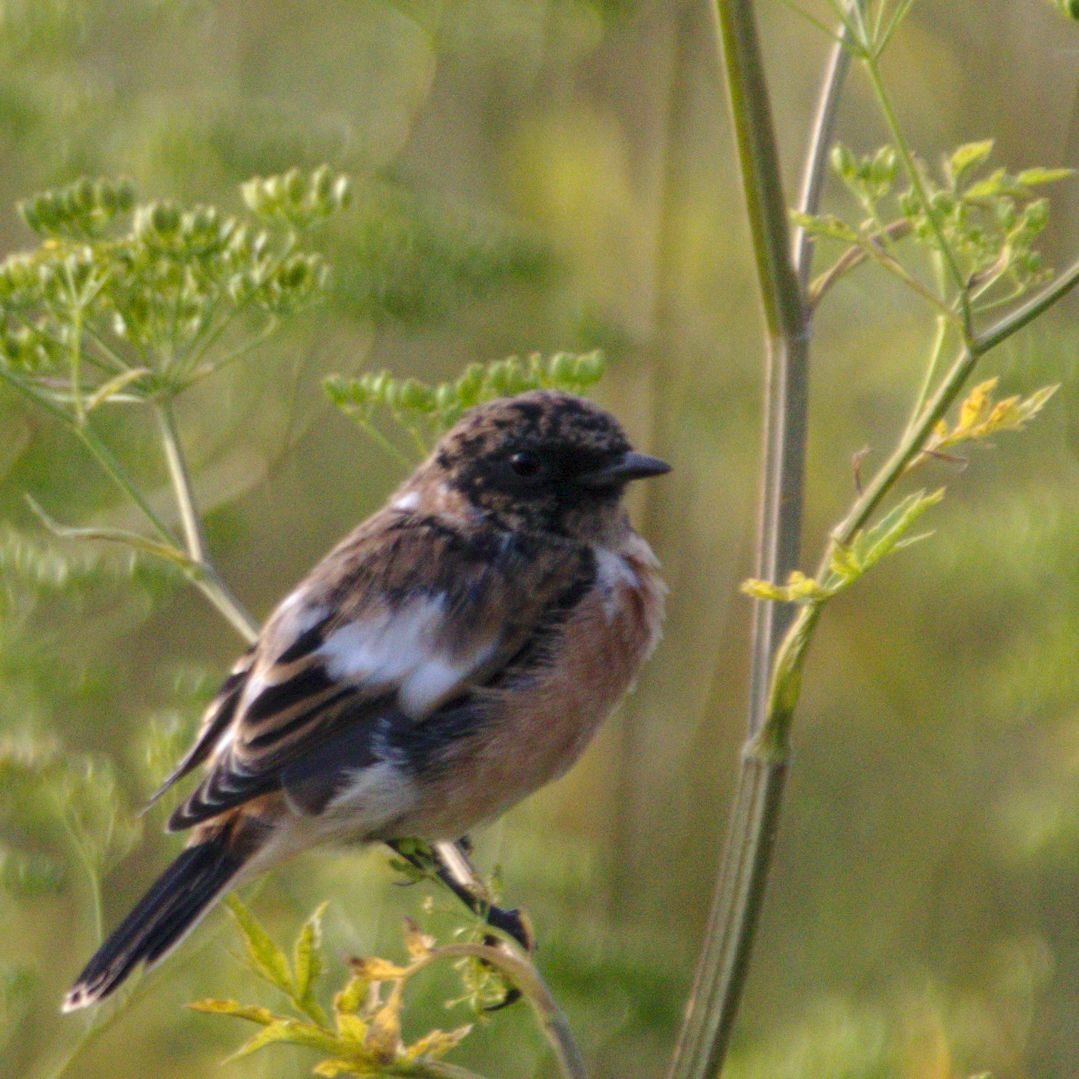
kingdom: Animalia
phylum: Chordata
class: Aves
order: Passeriformes
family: Muscicapidae
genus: Saxicola
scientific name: Saxicola maurus
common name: Siberian stonechat
